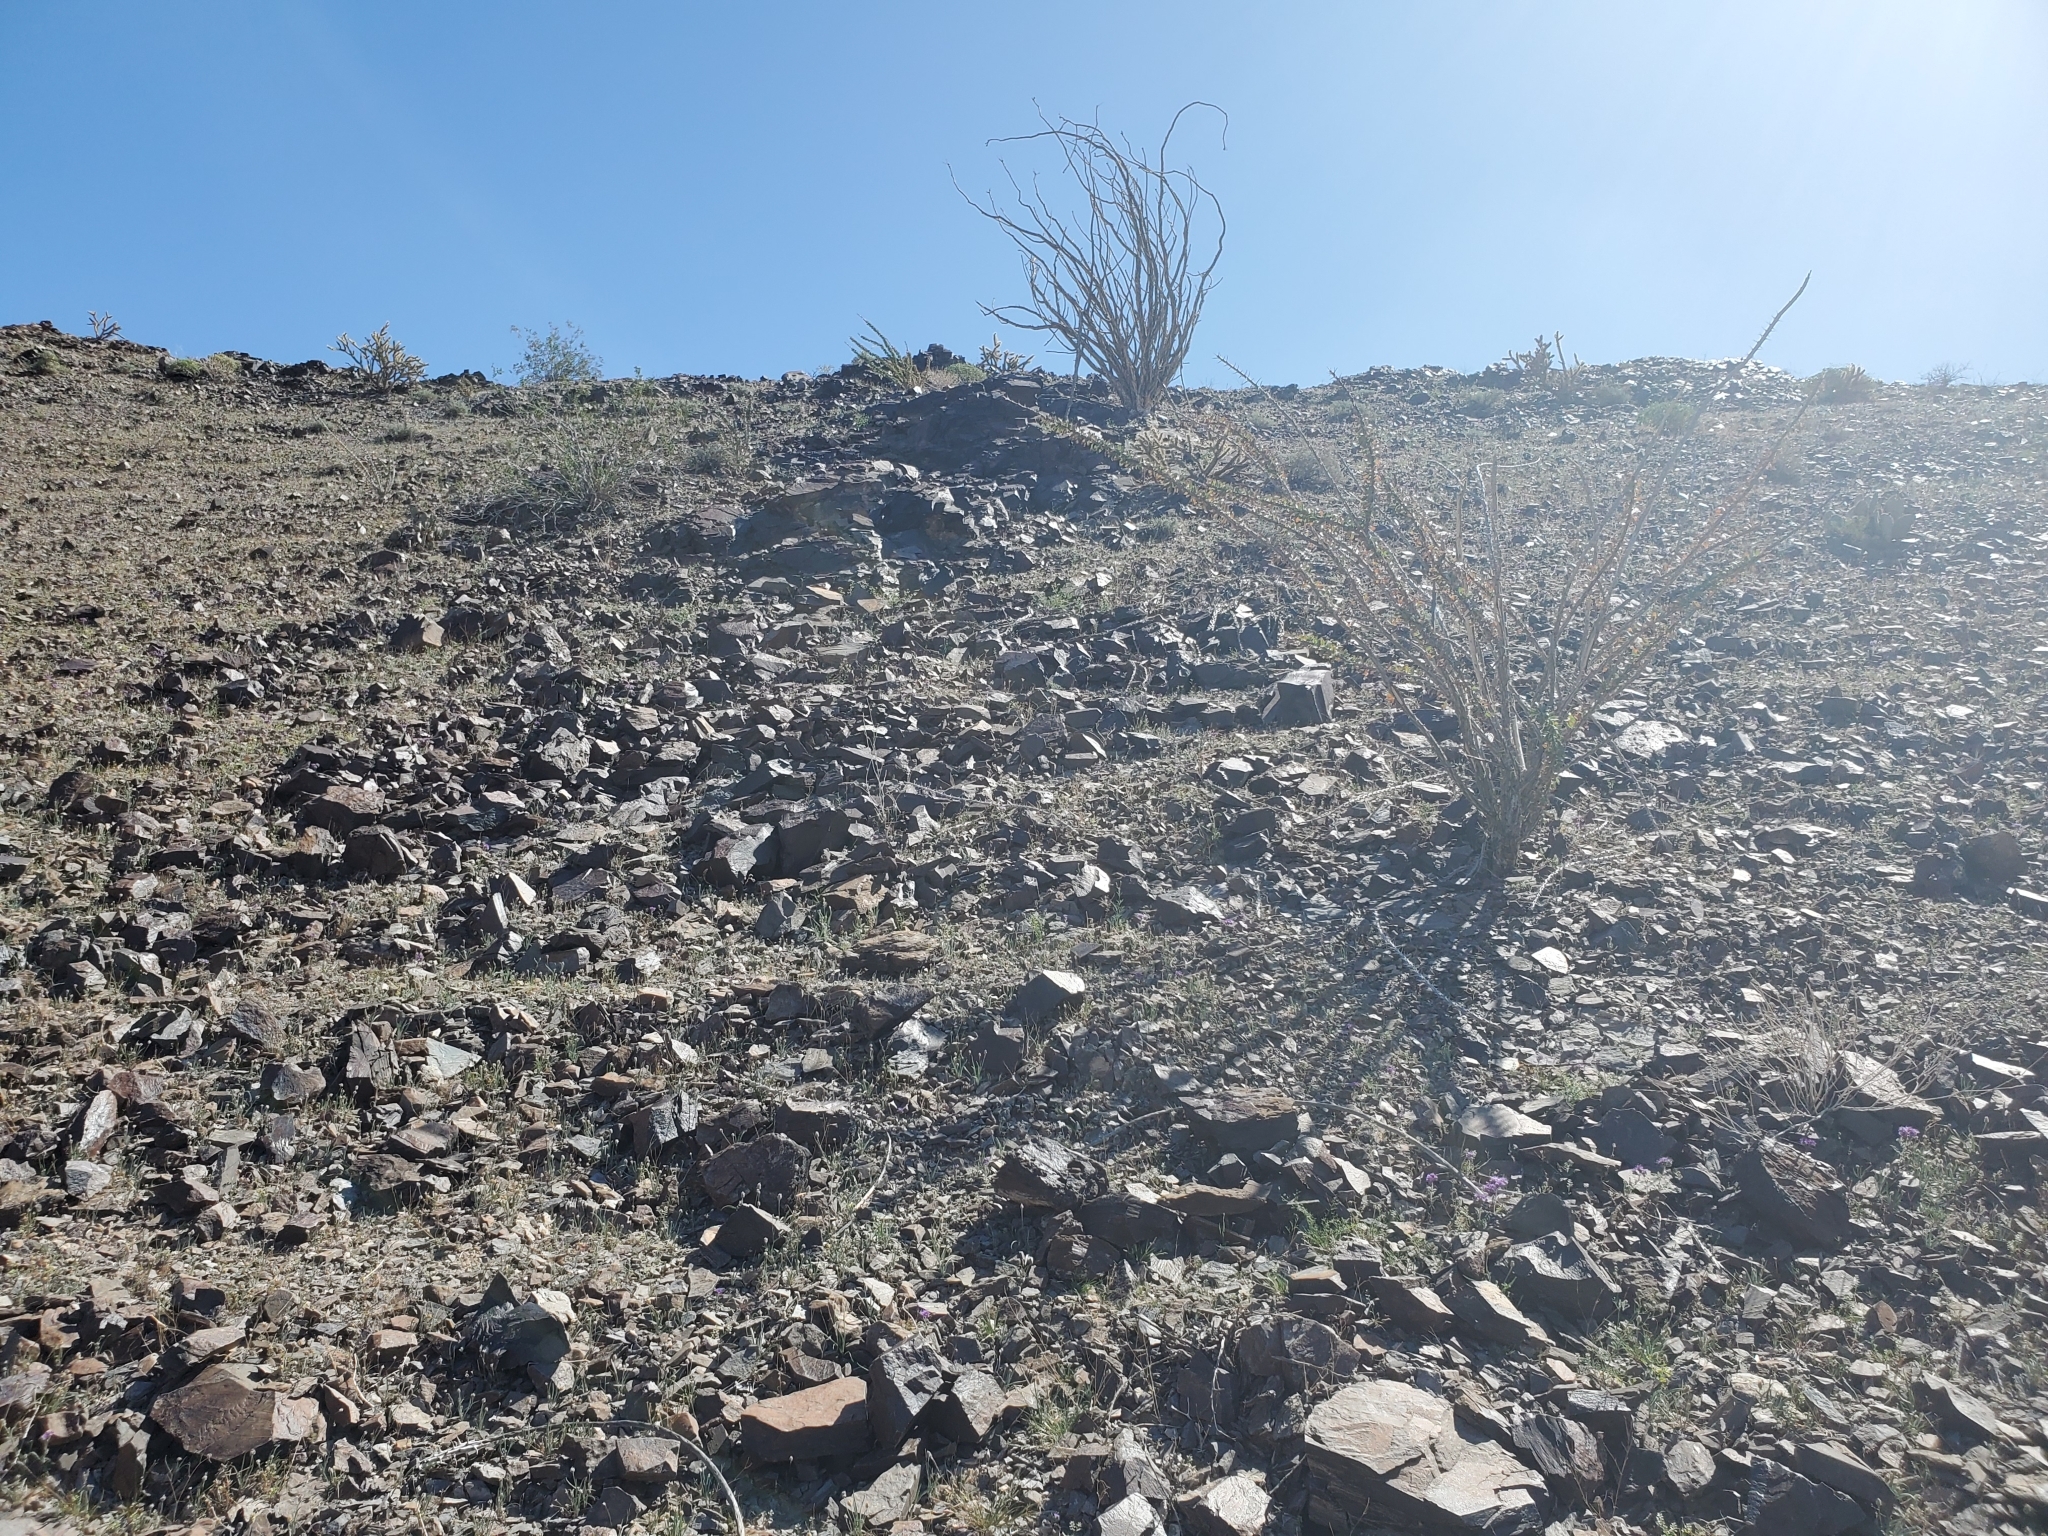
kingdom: Plantae
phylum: Tracheophyta
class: Magnoliopsida
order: Ericales
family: Fouquieriaceae
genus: Fouquieria
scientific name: Fouquieria splendens
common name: Vine-cactus
